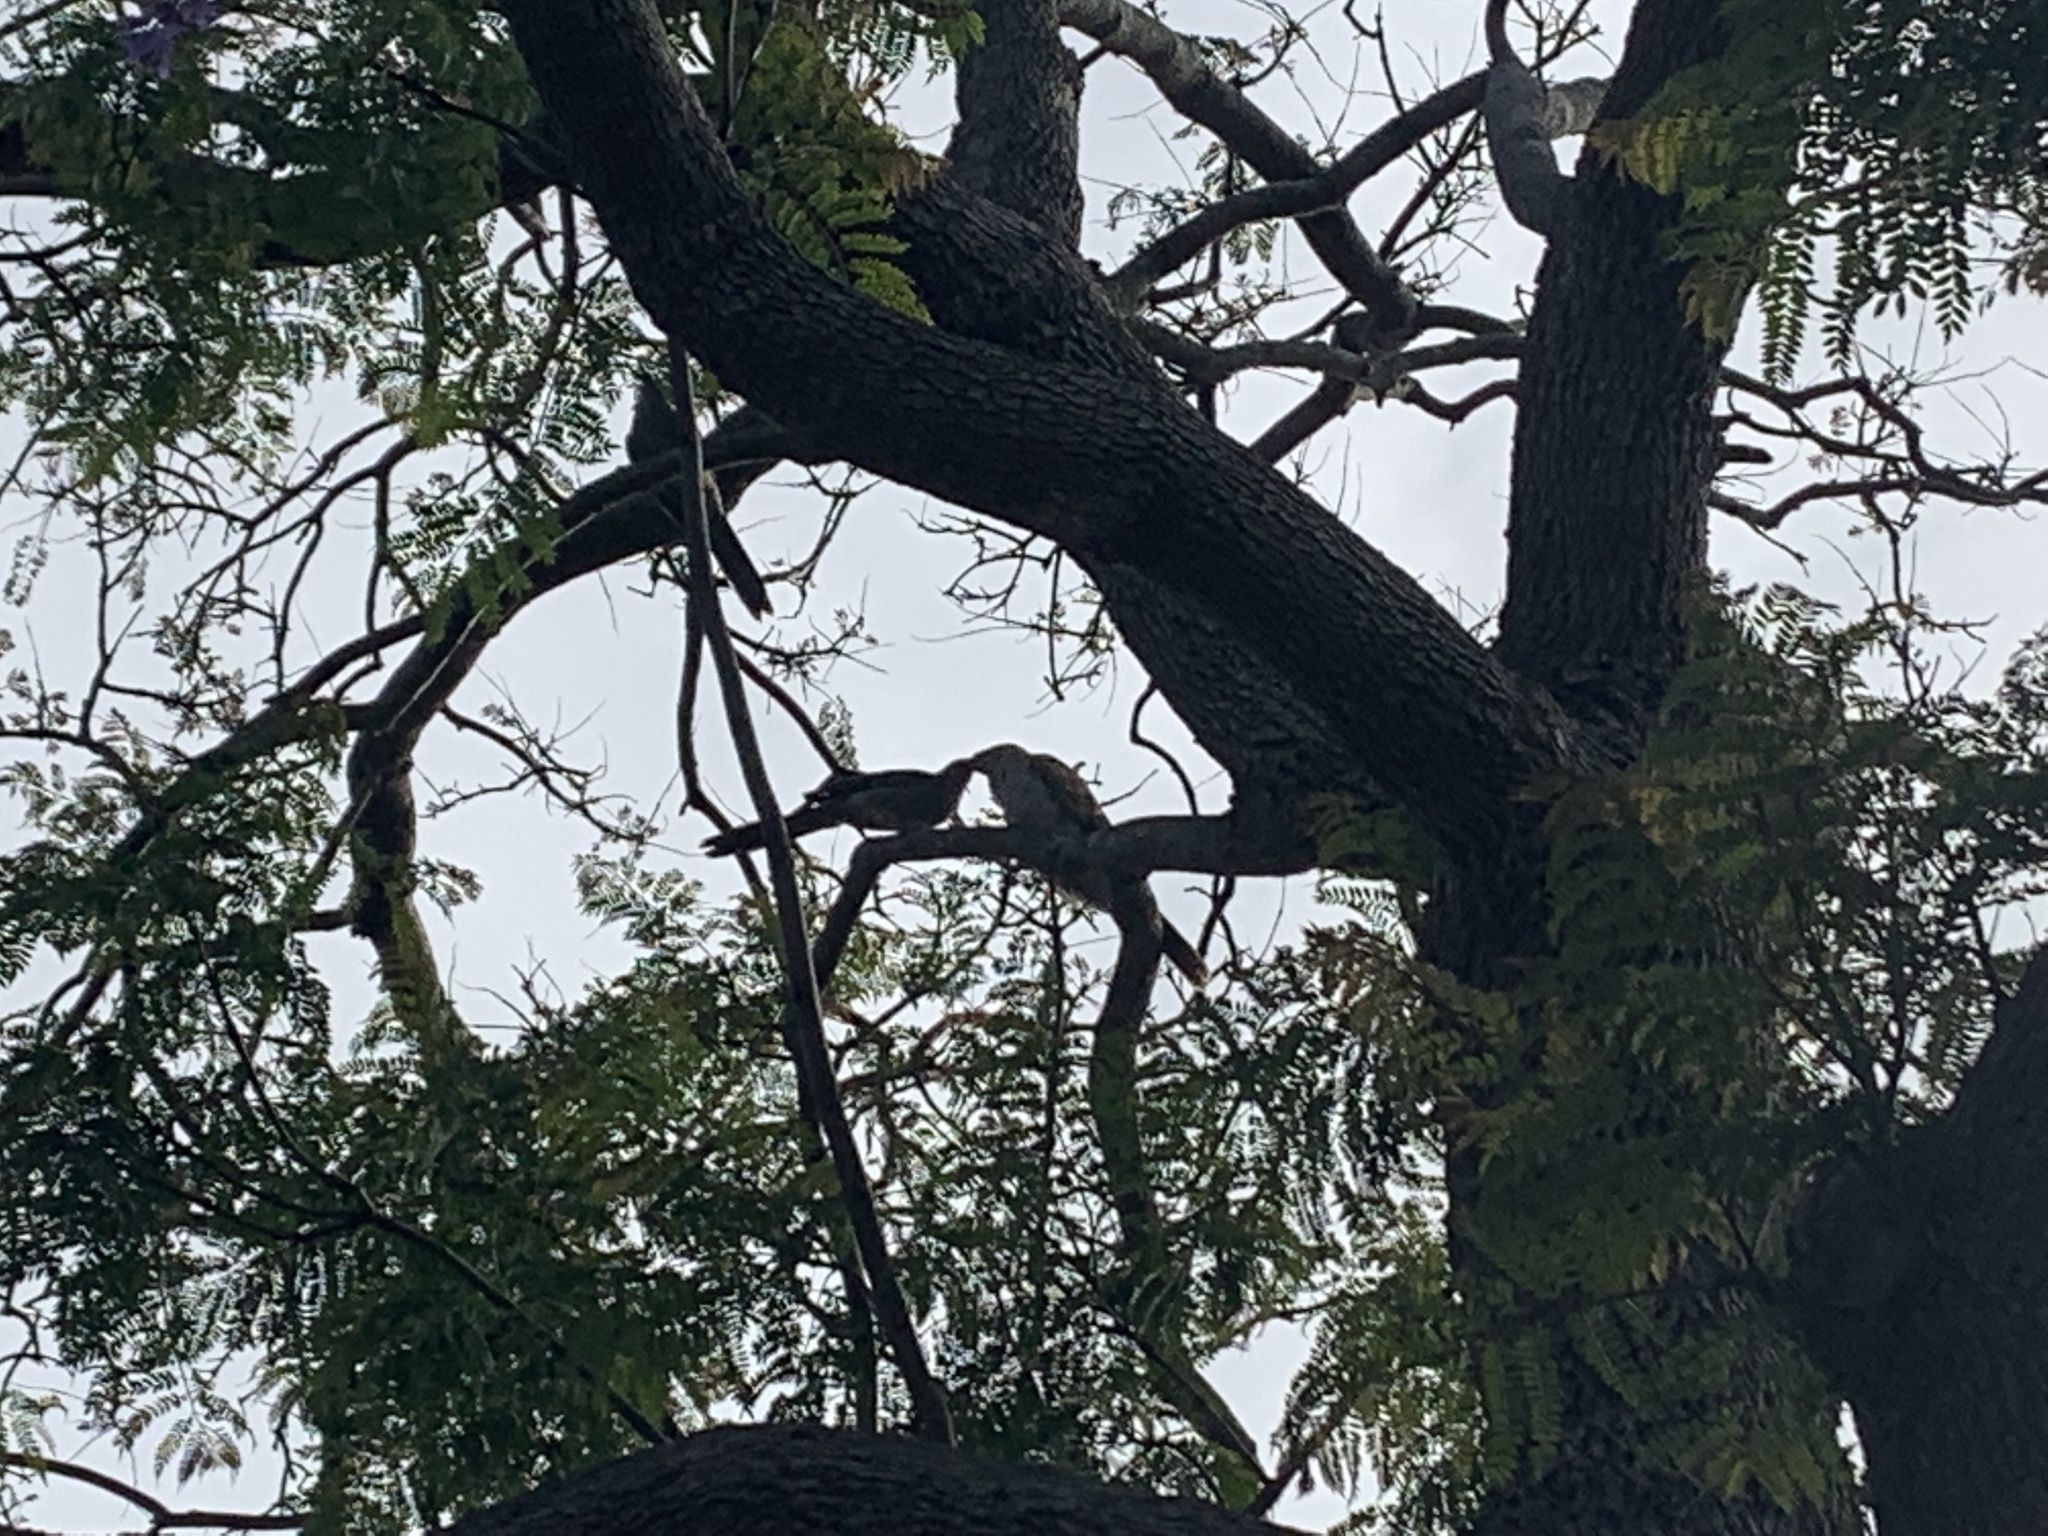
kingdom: Animalia
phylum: Chordata
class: Aves
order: Cuculiformes
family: Cuculidae
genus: Eudynamys
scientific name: Eudynamys orientalis
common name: Pacific koel
